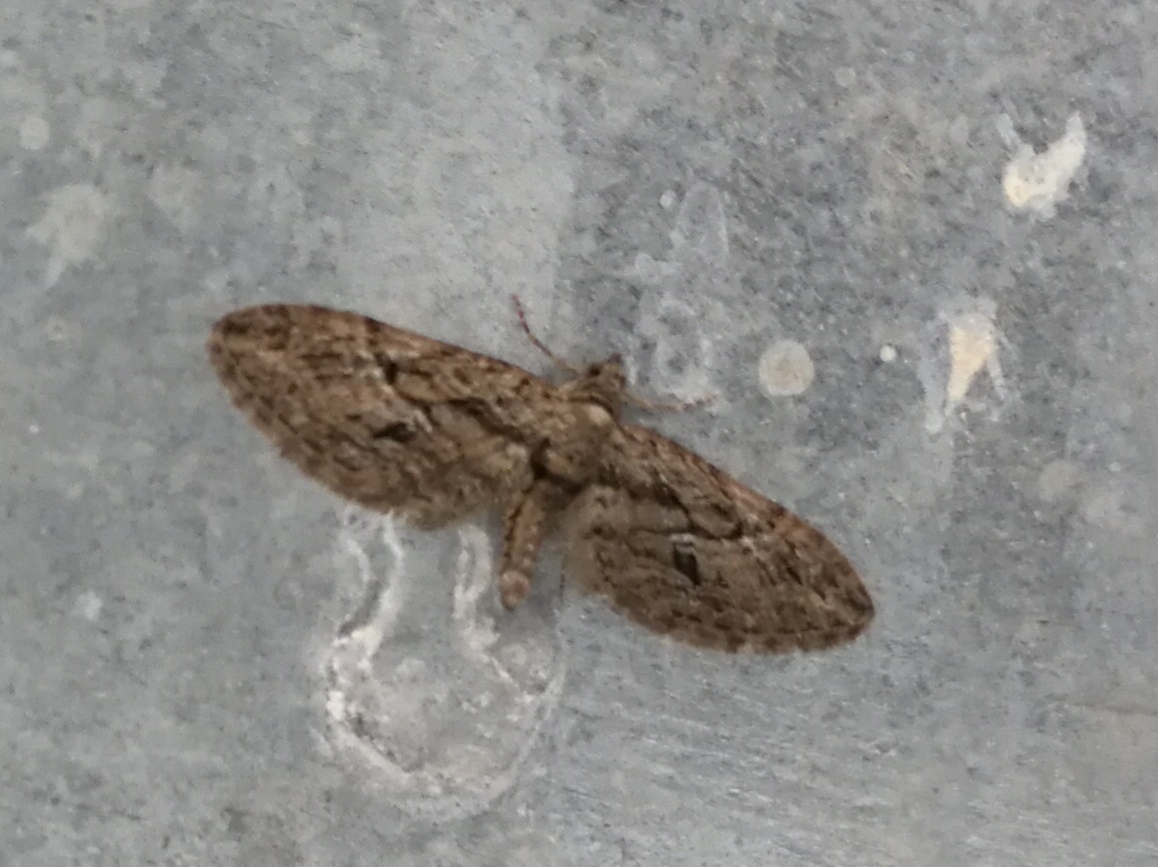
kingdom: Animalia
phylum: Arthropoda
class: Insecta
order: Lepidoptera
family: Geometridae
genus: Eupithecia
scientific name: Eupithecia oxycedrata
